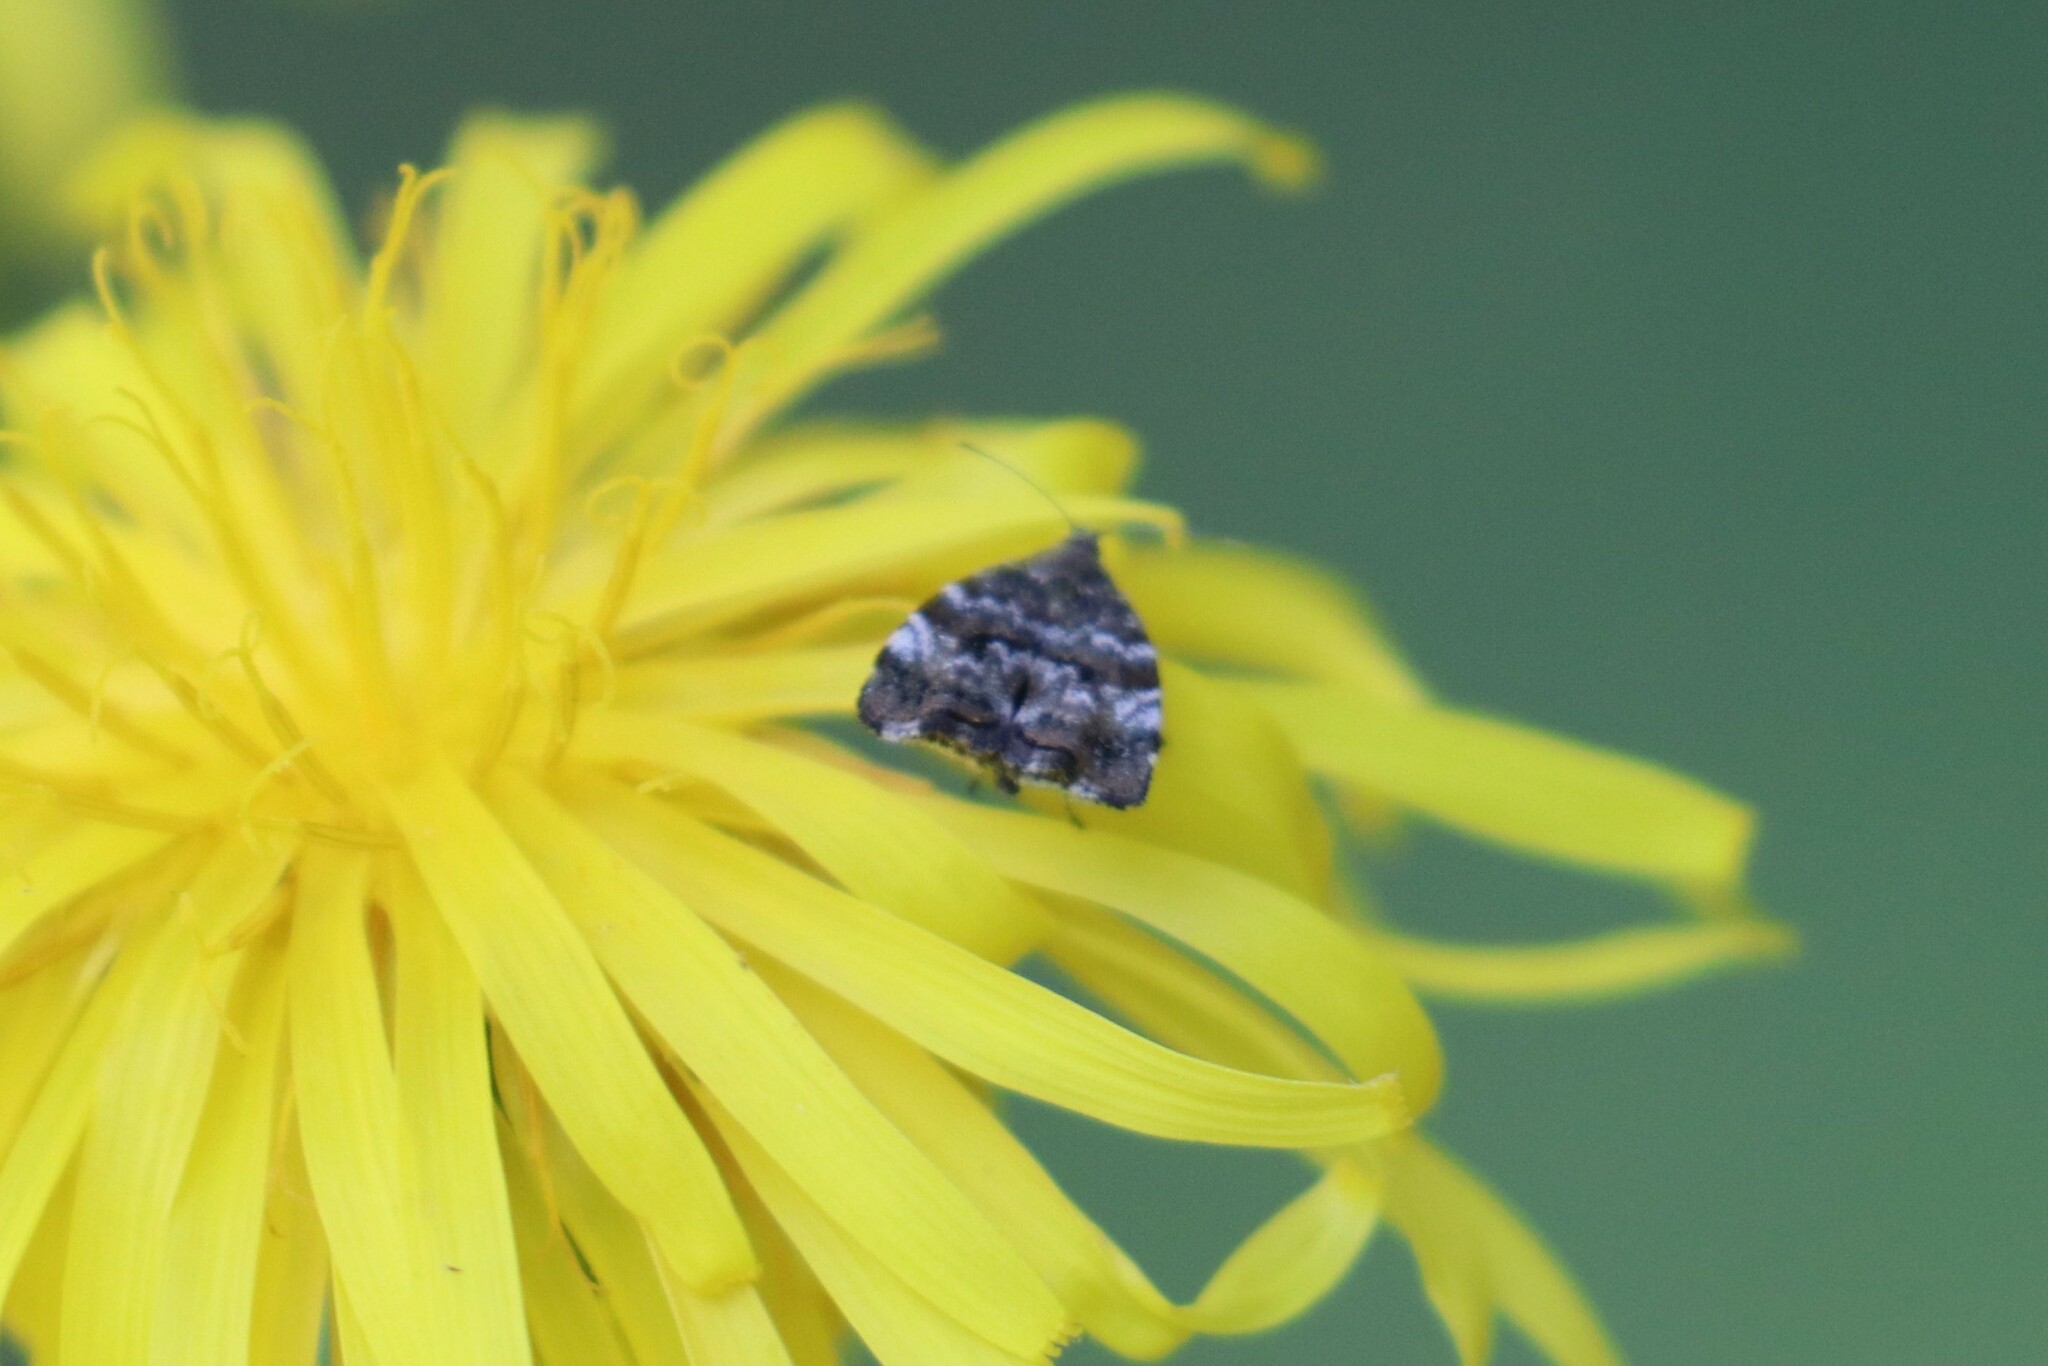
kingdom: Animalia
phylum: Arthropoda
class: Insecta
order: Lepidoptera
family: Choreutidae
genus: Choreutis
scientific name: Choreutis diana
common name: Inverness twitcher
